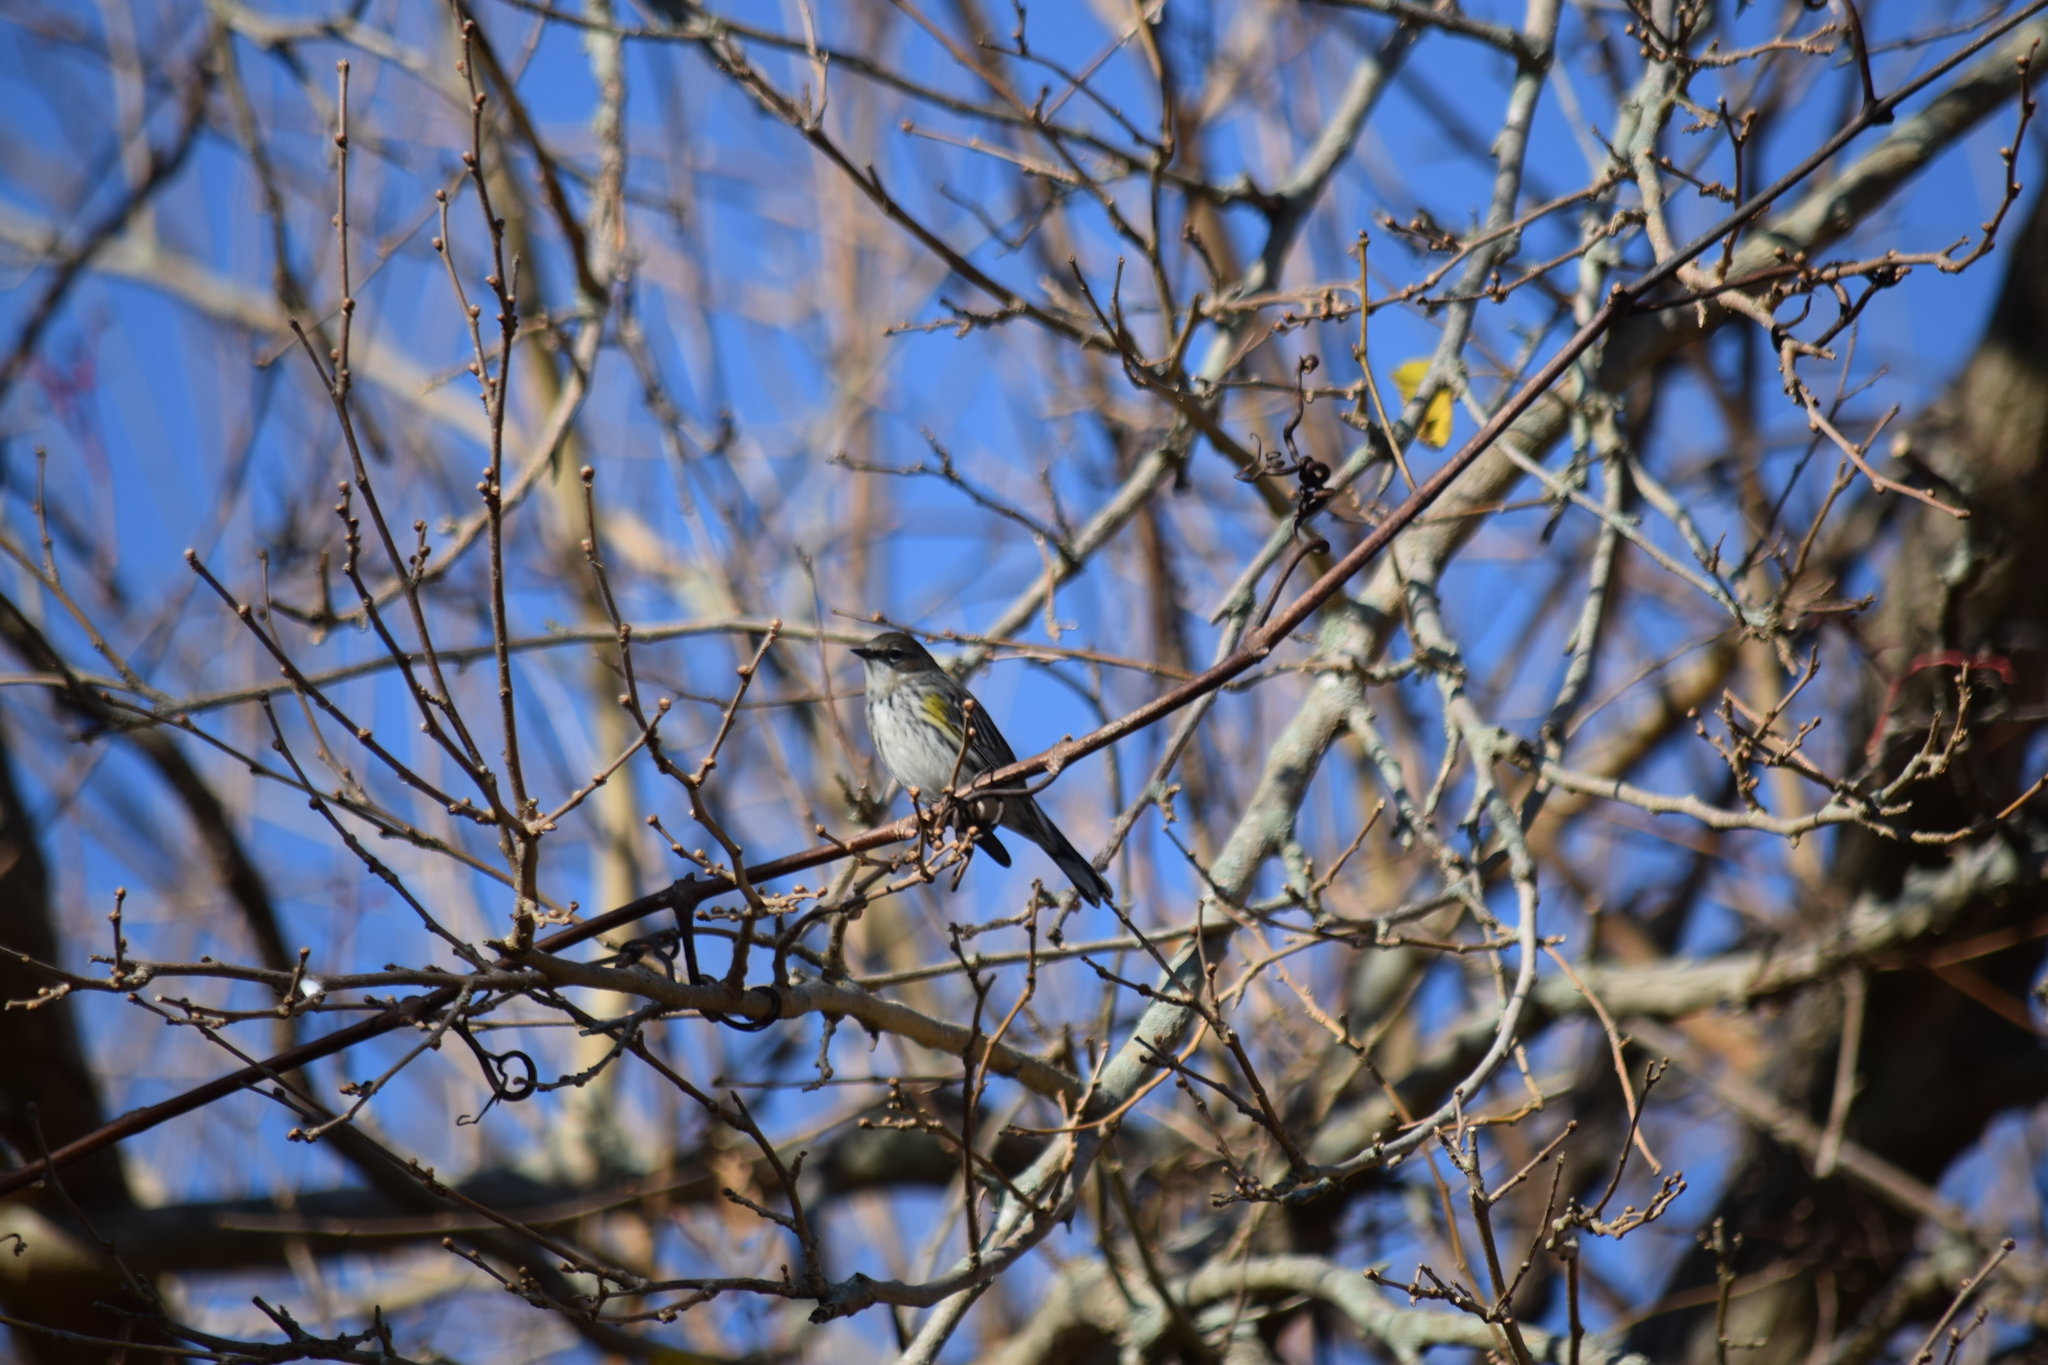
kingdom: Animalia
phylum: Chordata
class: Aves
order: Passeriformes
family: Parulidae
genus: Setophaga
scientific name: Setophaga coronata
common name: Myrtle warbler
